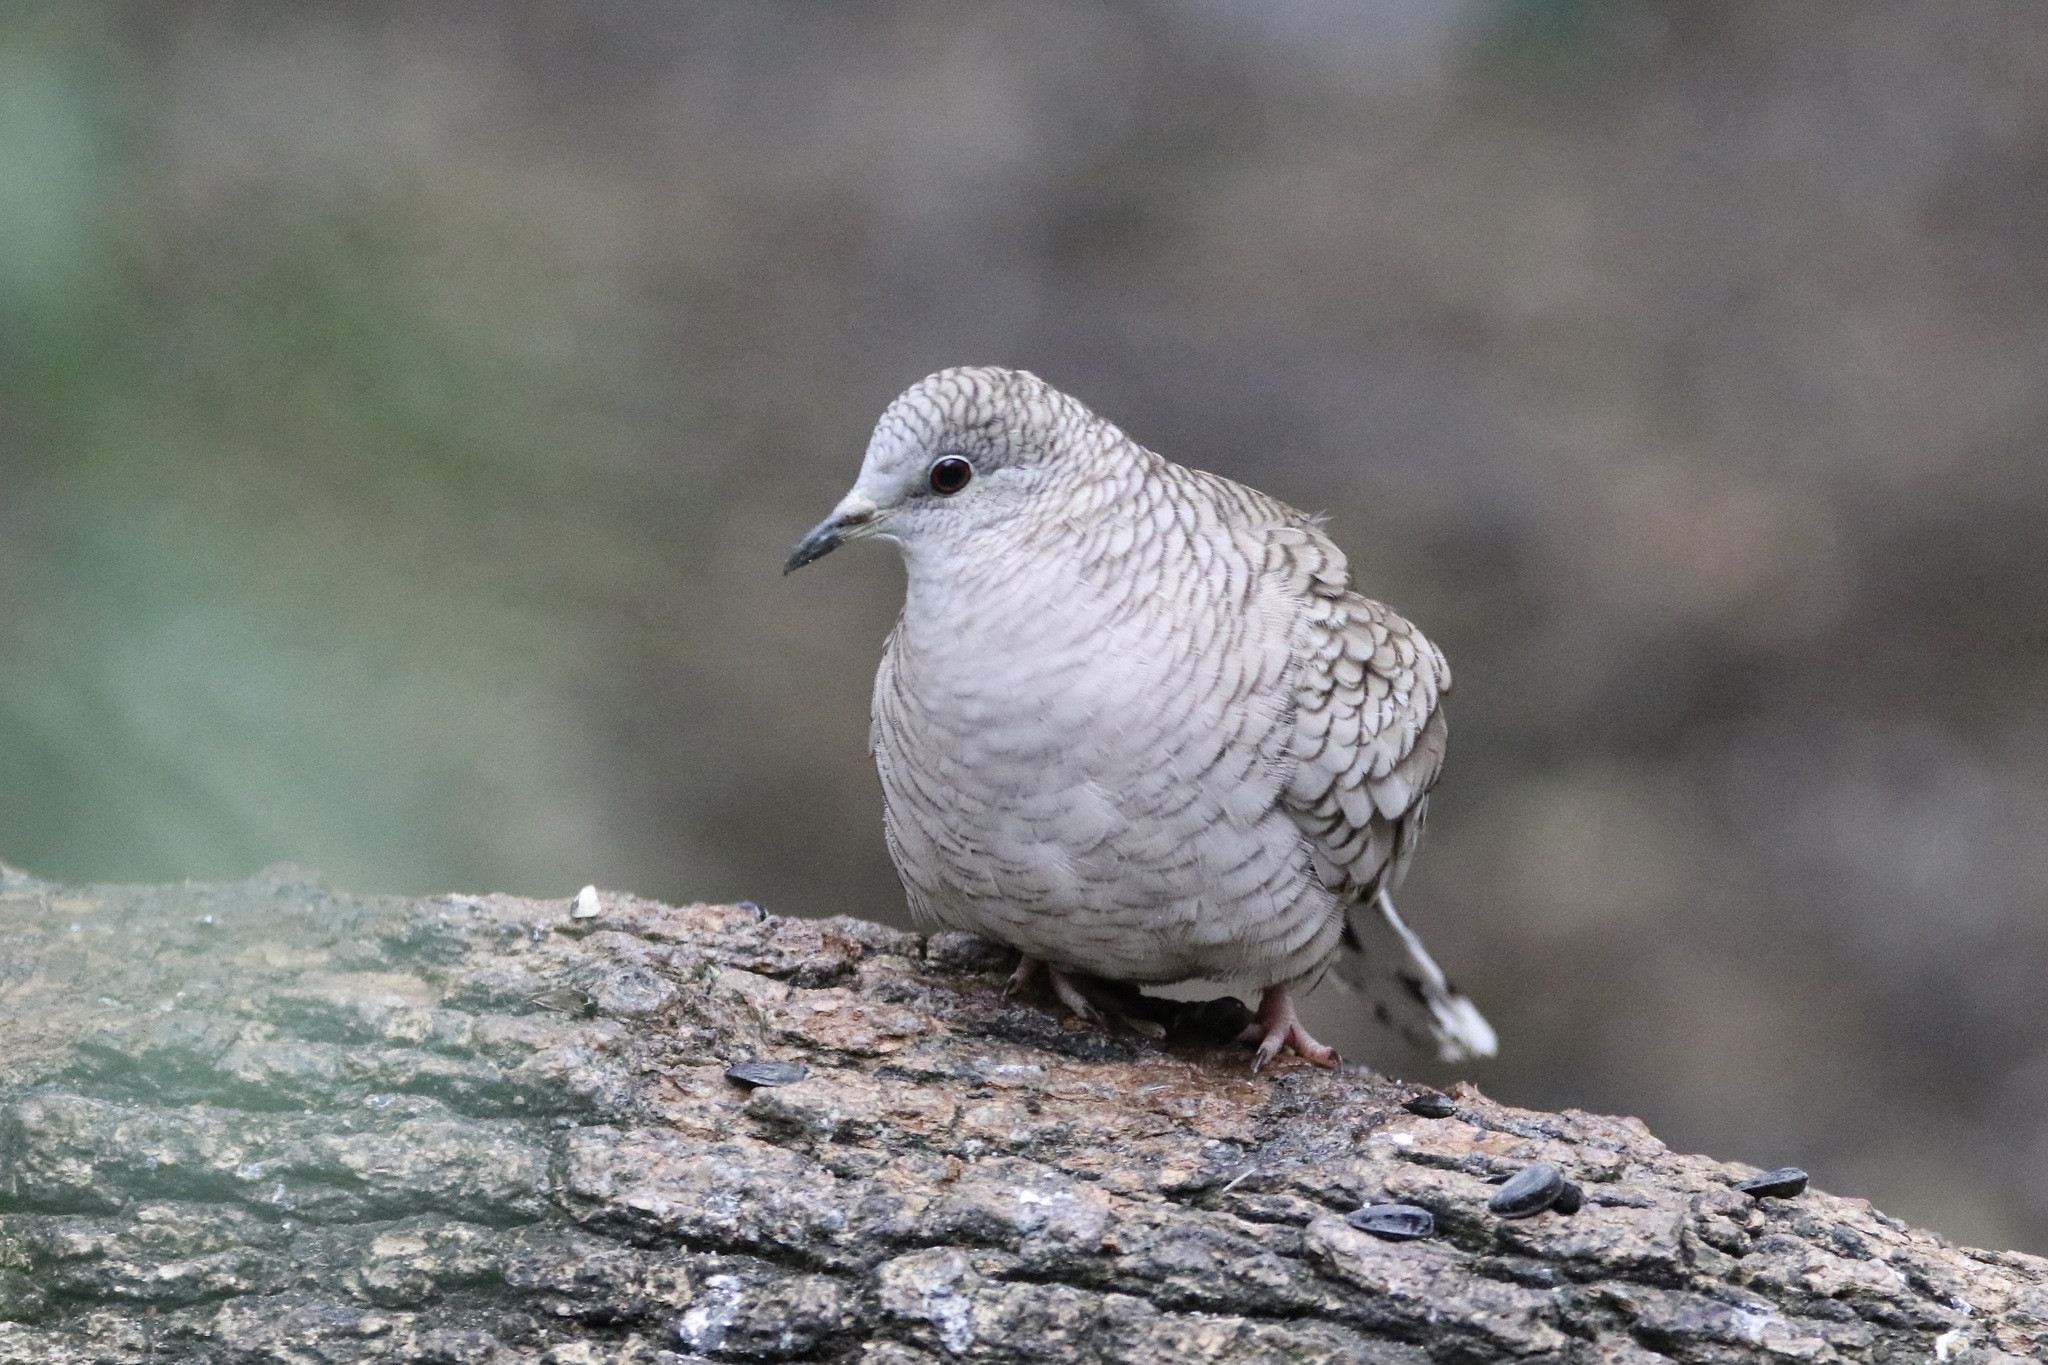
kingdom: Animalia
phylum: Chordata
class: Aves
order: Columbiformes
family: Columbidae
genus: Columbina
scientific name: Columbina inca
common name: Inca dove
